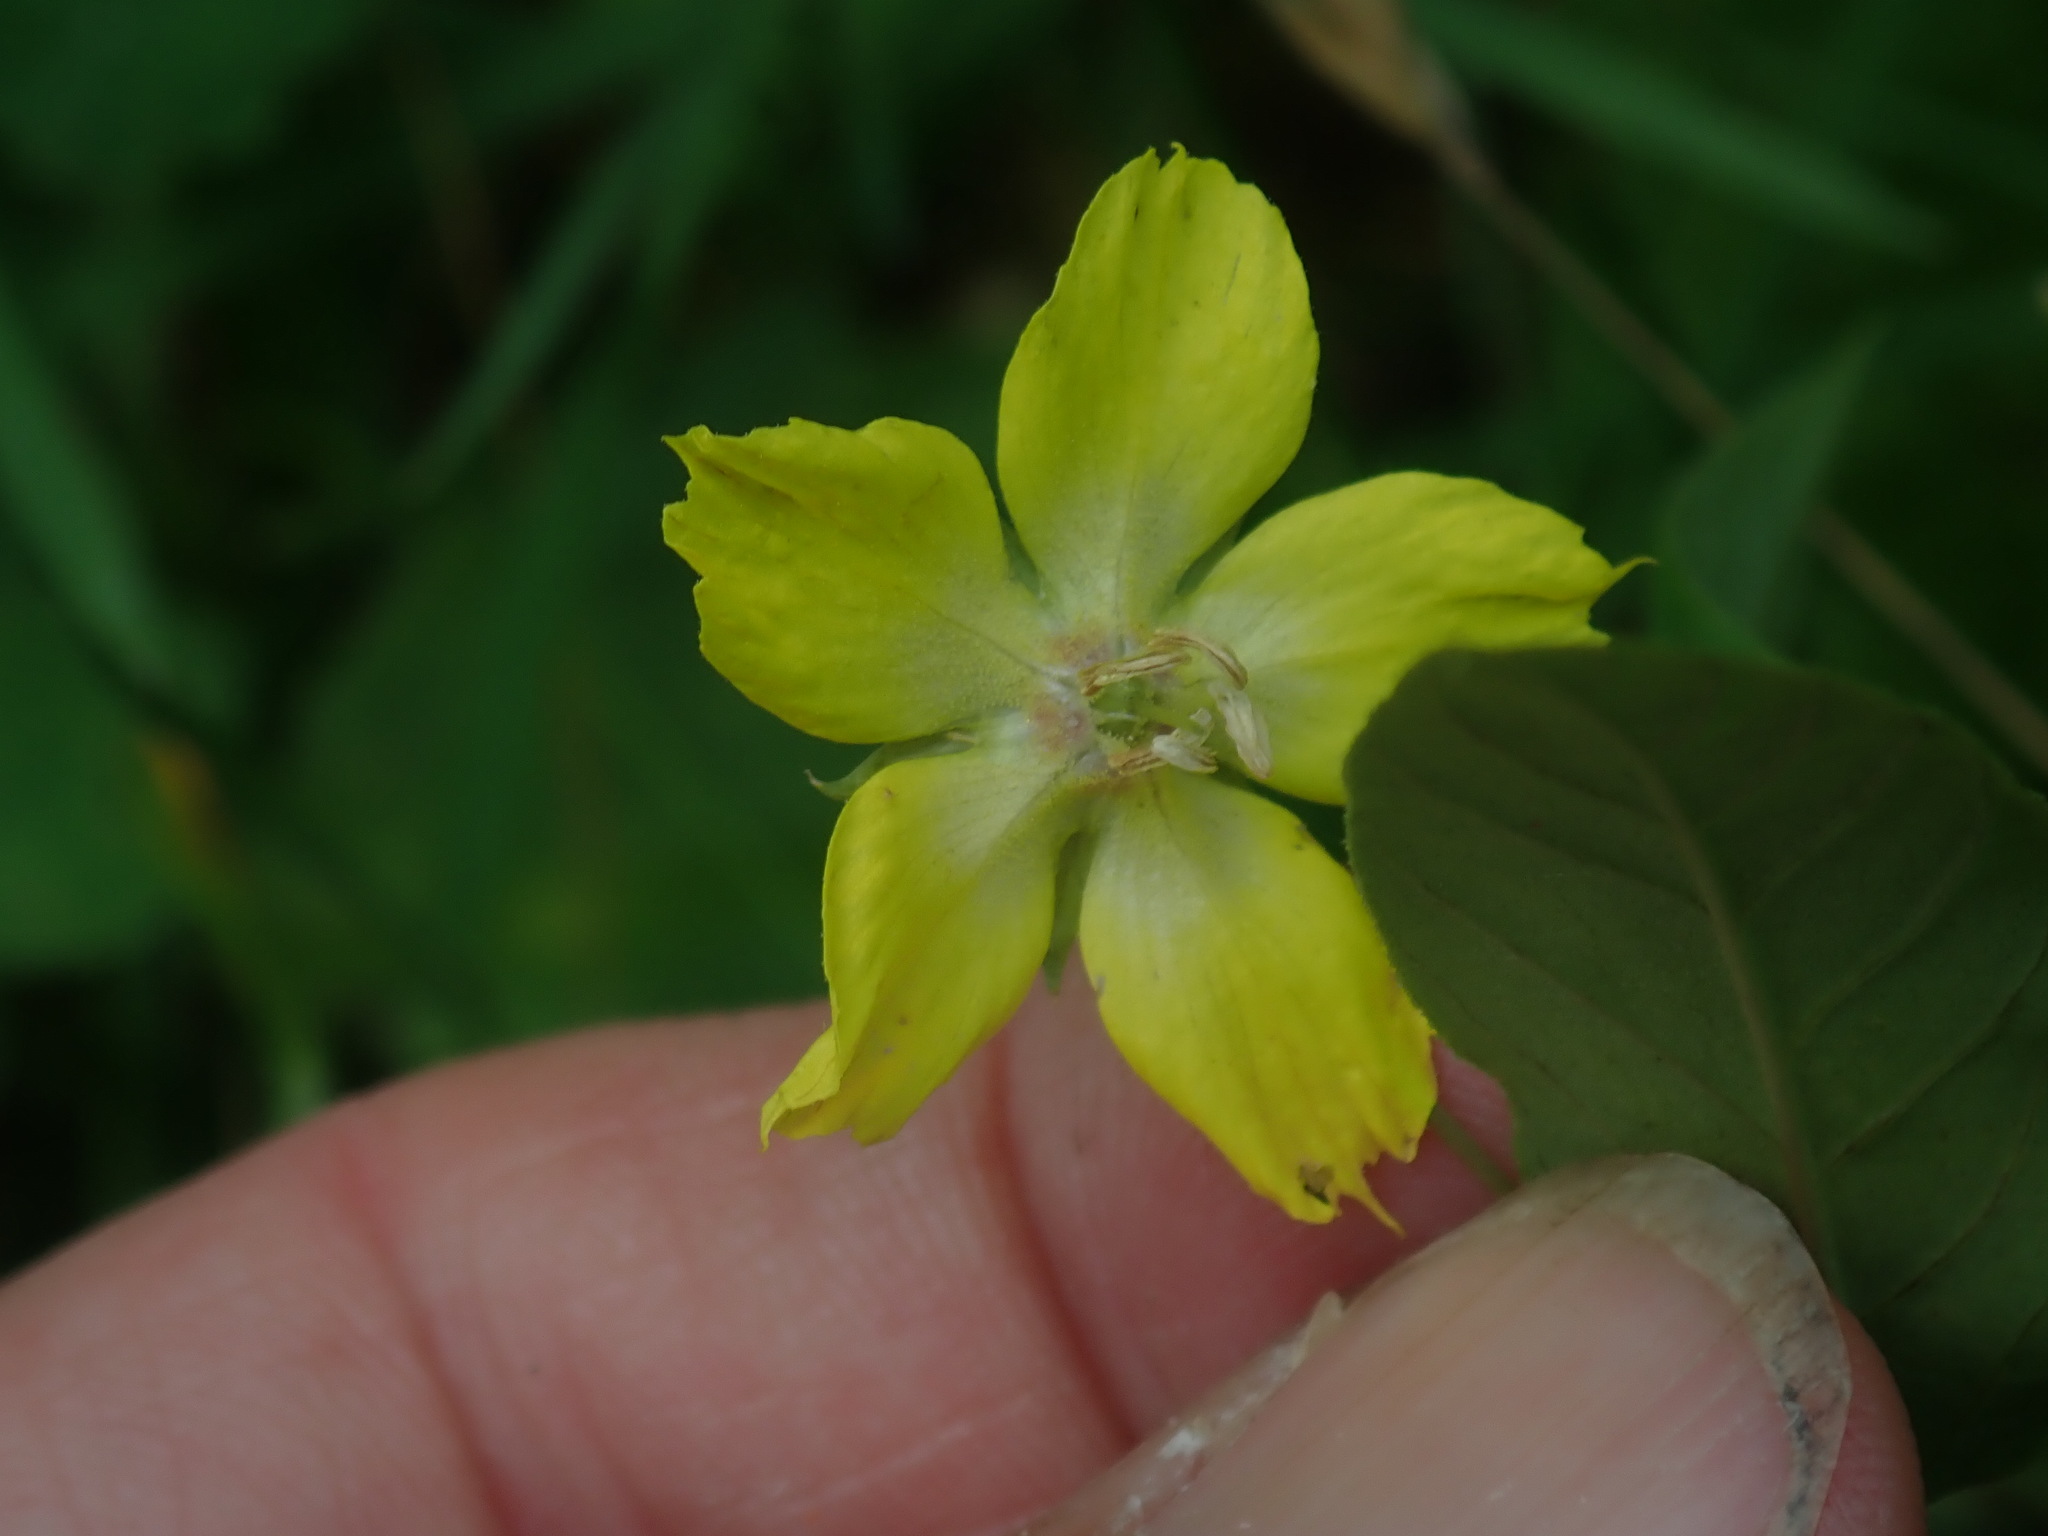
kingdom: Plantae
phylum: Tracheophyta
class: Magnoliopsida
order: Ericales
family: Primulaceae
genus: Lysimachia
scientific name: Lysimachia ciliata
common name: Fringed loosestrife
